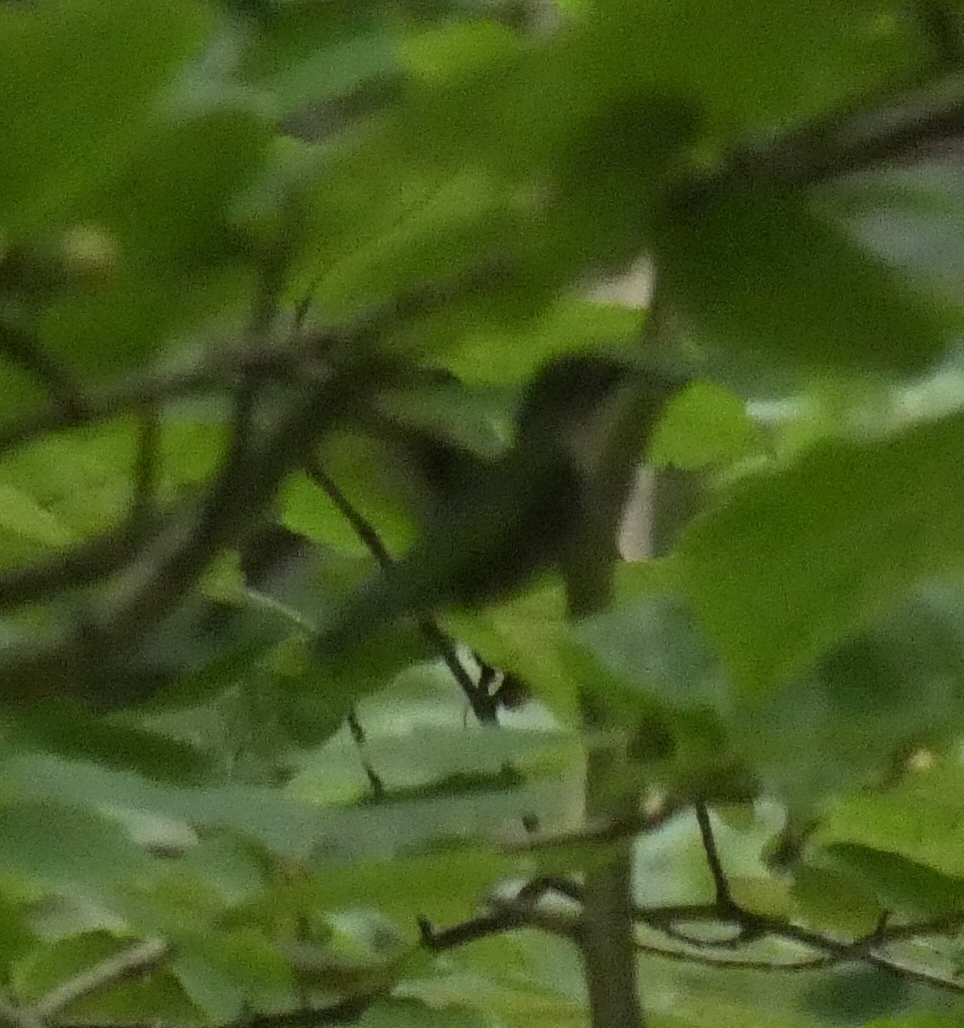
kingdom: Animalia
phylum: Chordata
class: Aves
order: Apodiformes
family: Trochilidae
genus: Archilochus
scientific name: Archilochus colubris
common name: Ruby-throated hummingbird
